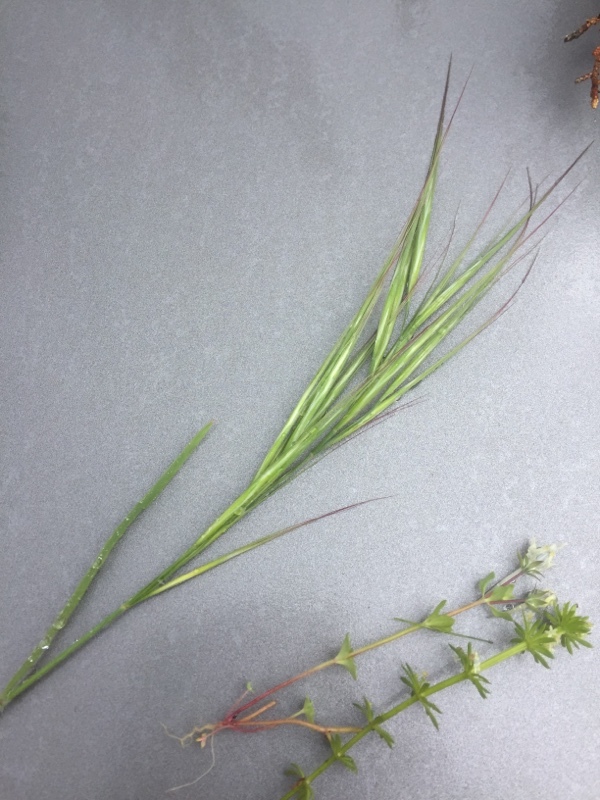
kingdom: Plantae
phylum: Tracheophyta
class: Liliopsida
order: Poales
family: Poaceae
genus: Bromus
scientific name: Bromus hordeaceus
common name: Soft brome
